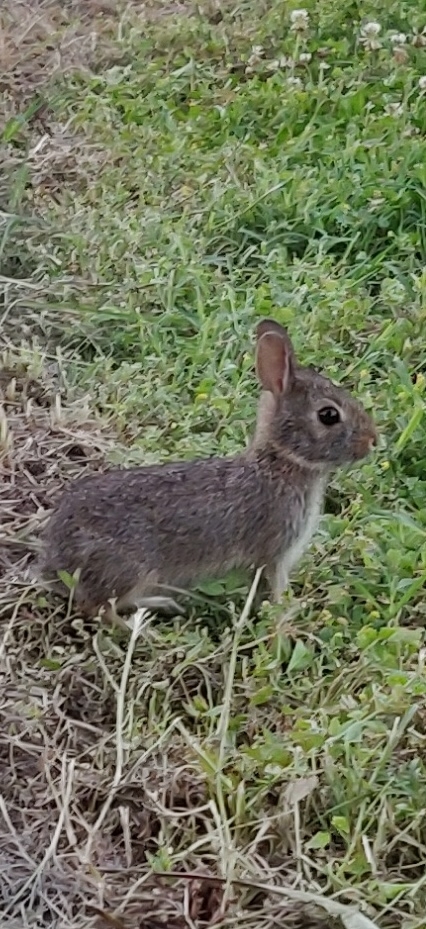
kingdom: Animalia
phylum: Chordata
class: Mammalia
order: Lagomorpha
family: Leporidae
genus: Sylvilagus
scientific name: Sylvilagus floridanus
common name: Eastern cottontail
